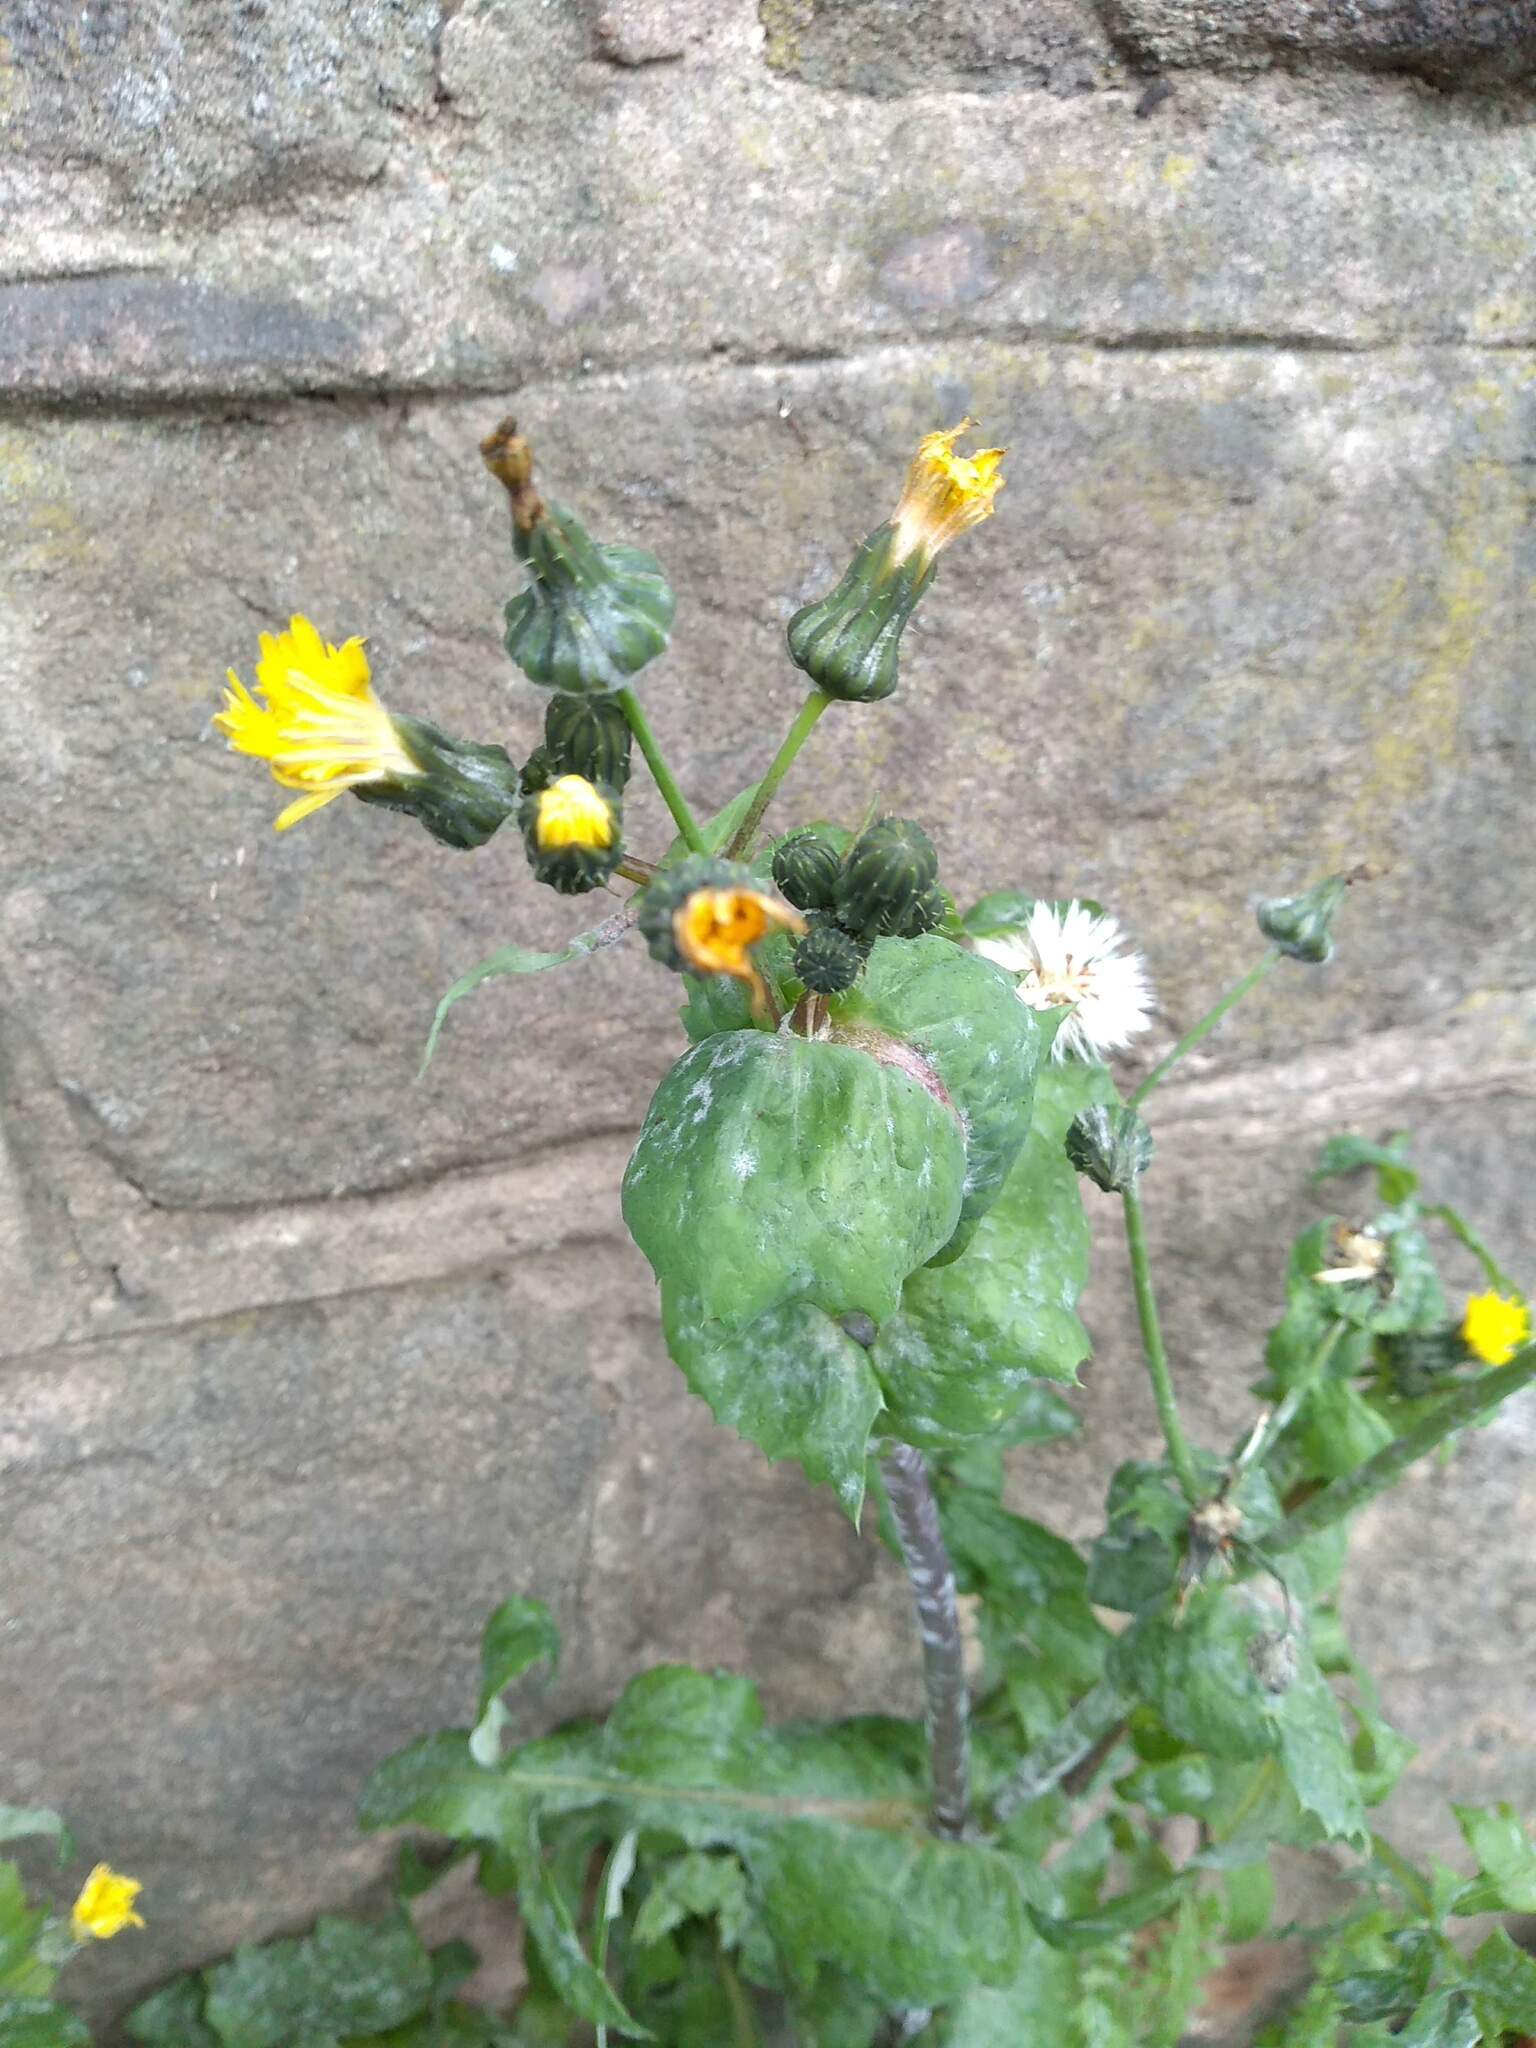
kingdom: Plantae
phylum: Tracheophyta
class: Magnoliopsida
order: Asterales
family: Asteraceae
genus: Sonchus
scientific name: Sonchus oleraceus
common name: Common sowthistle
